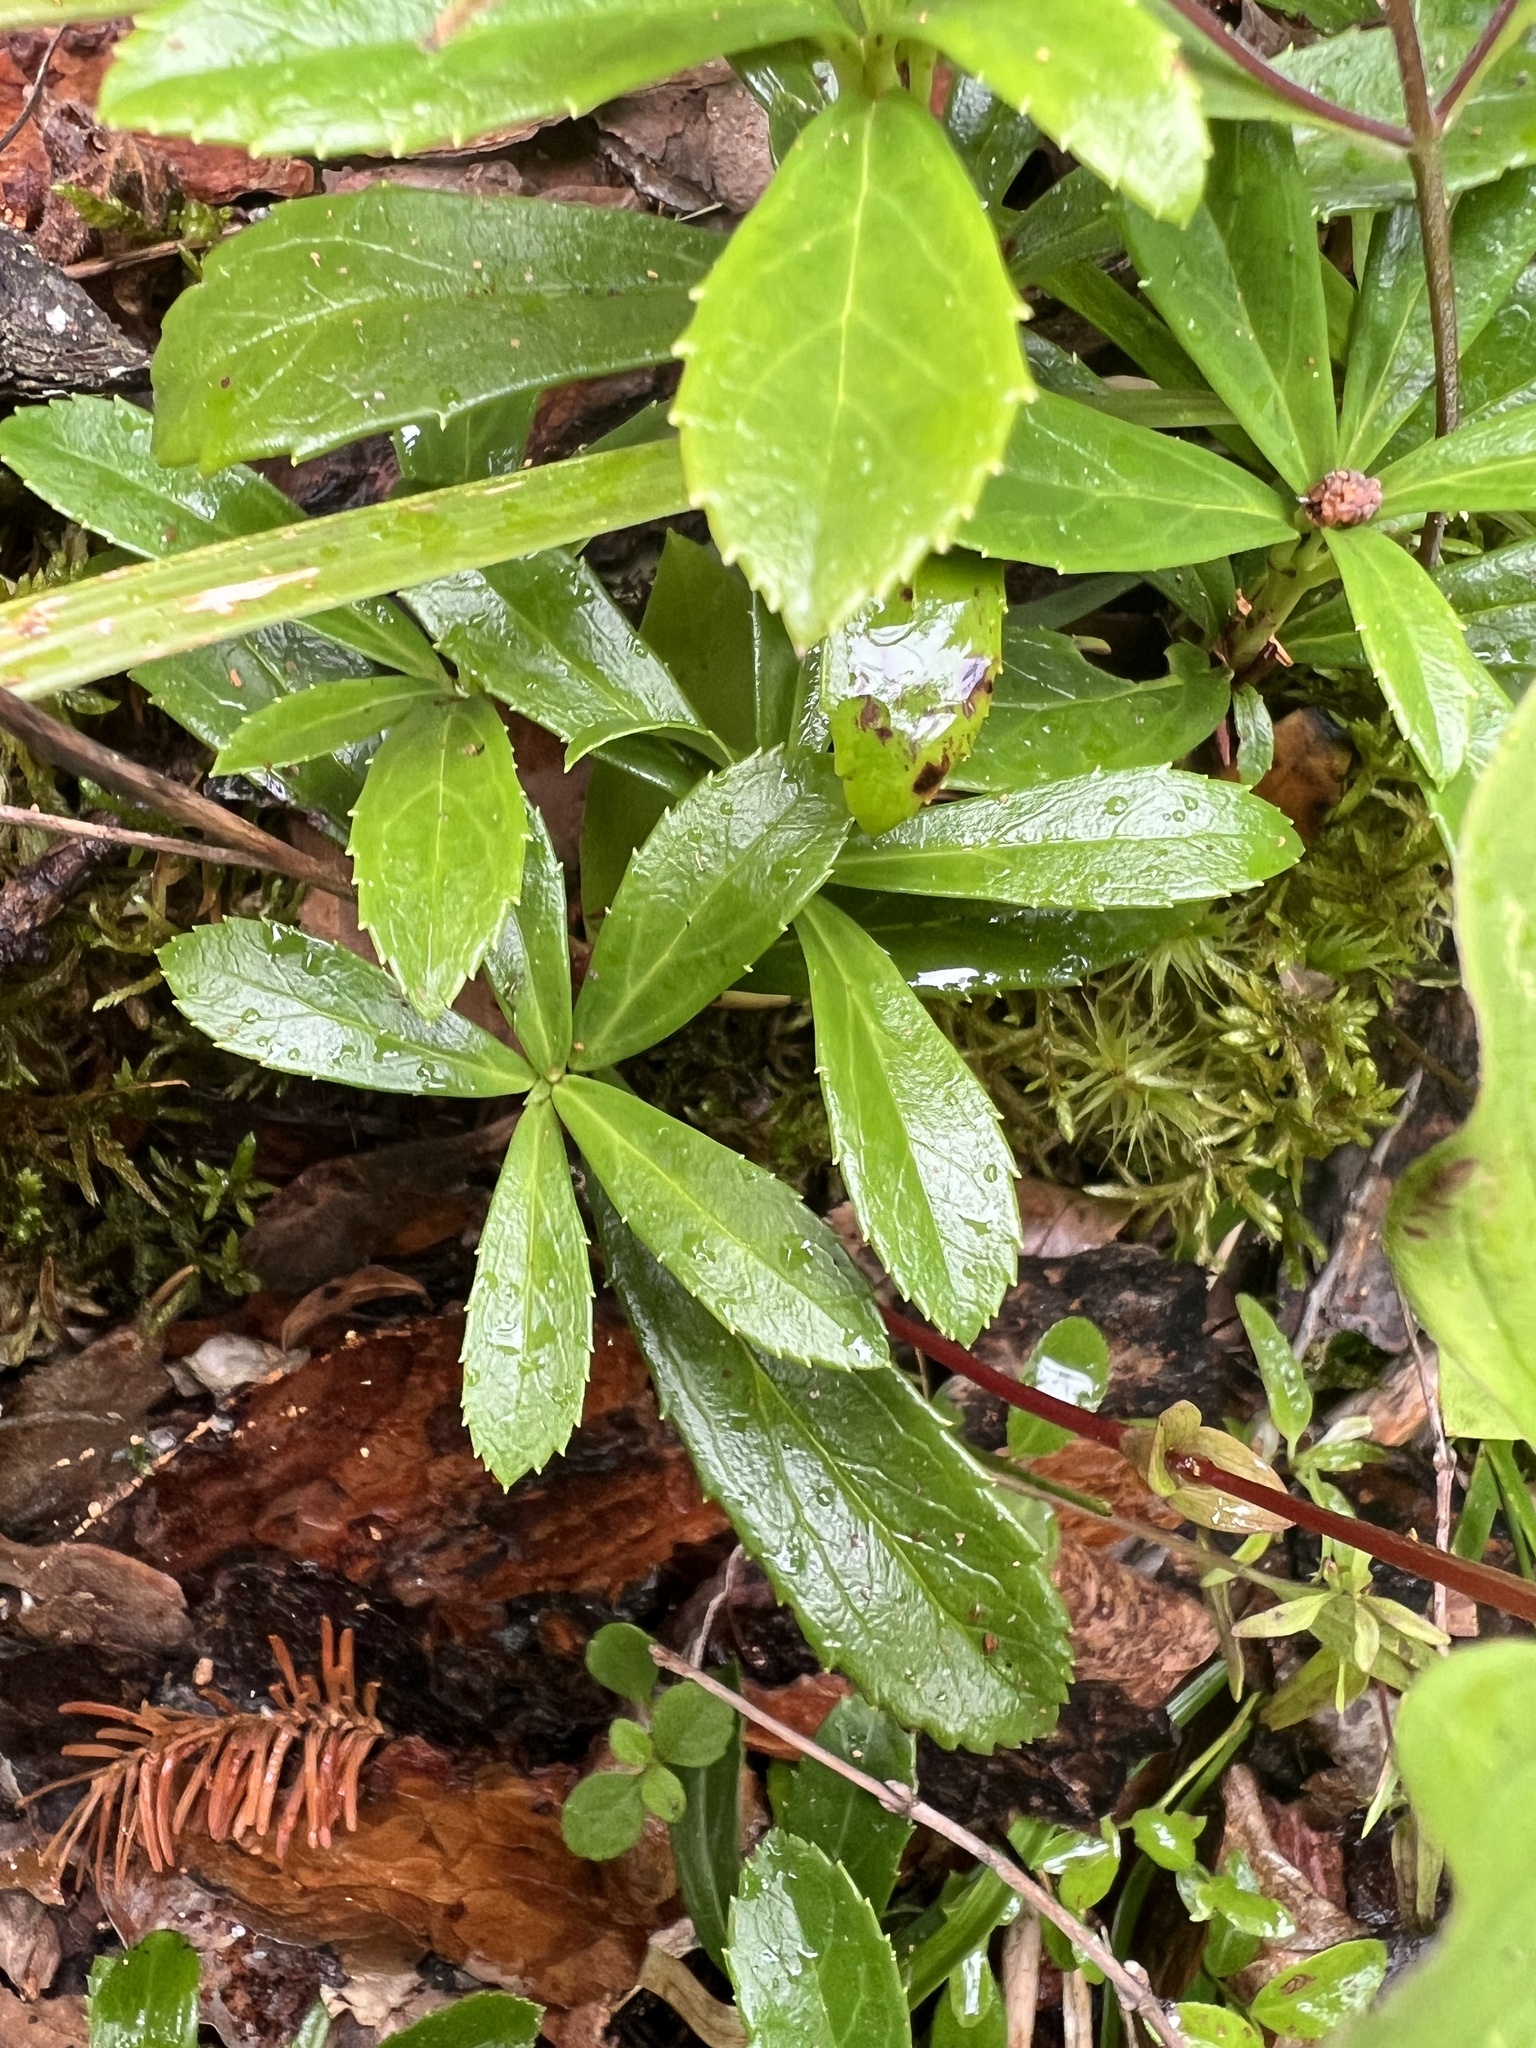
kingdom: Plantae
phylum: Tracheophyta
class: Magnoliopsida
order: Ericales
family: Ericaceae
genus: Chimaphila
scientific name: Chimaphila umbellata
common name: Pipsissewa
